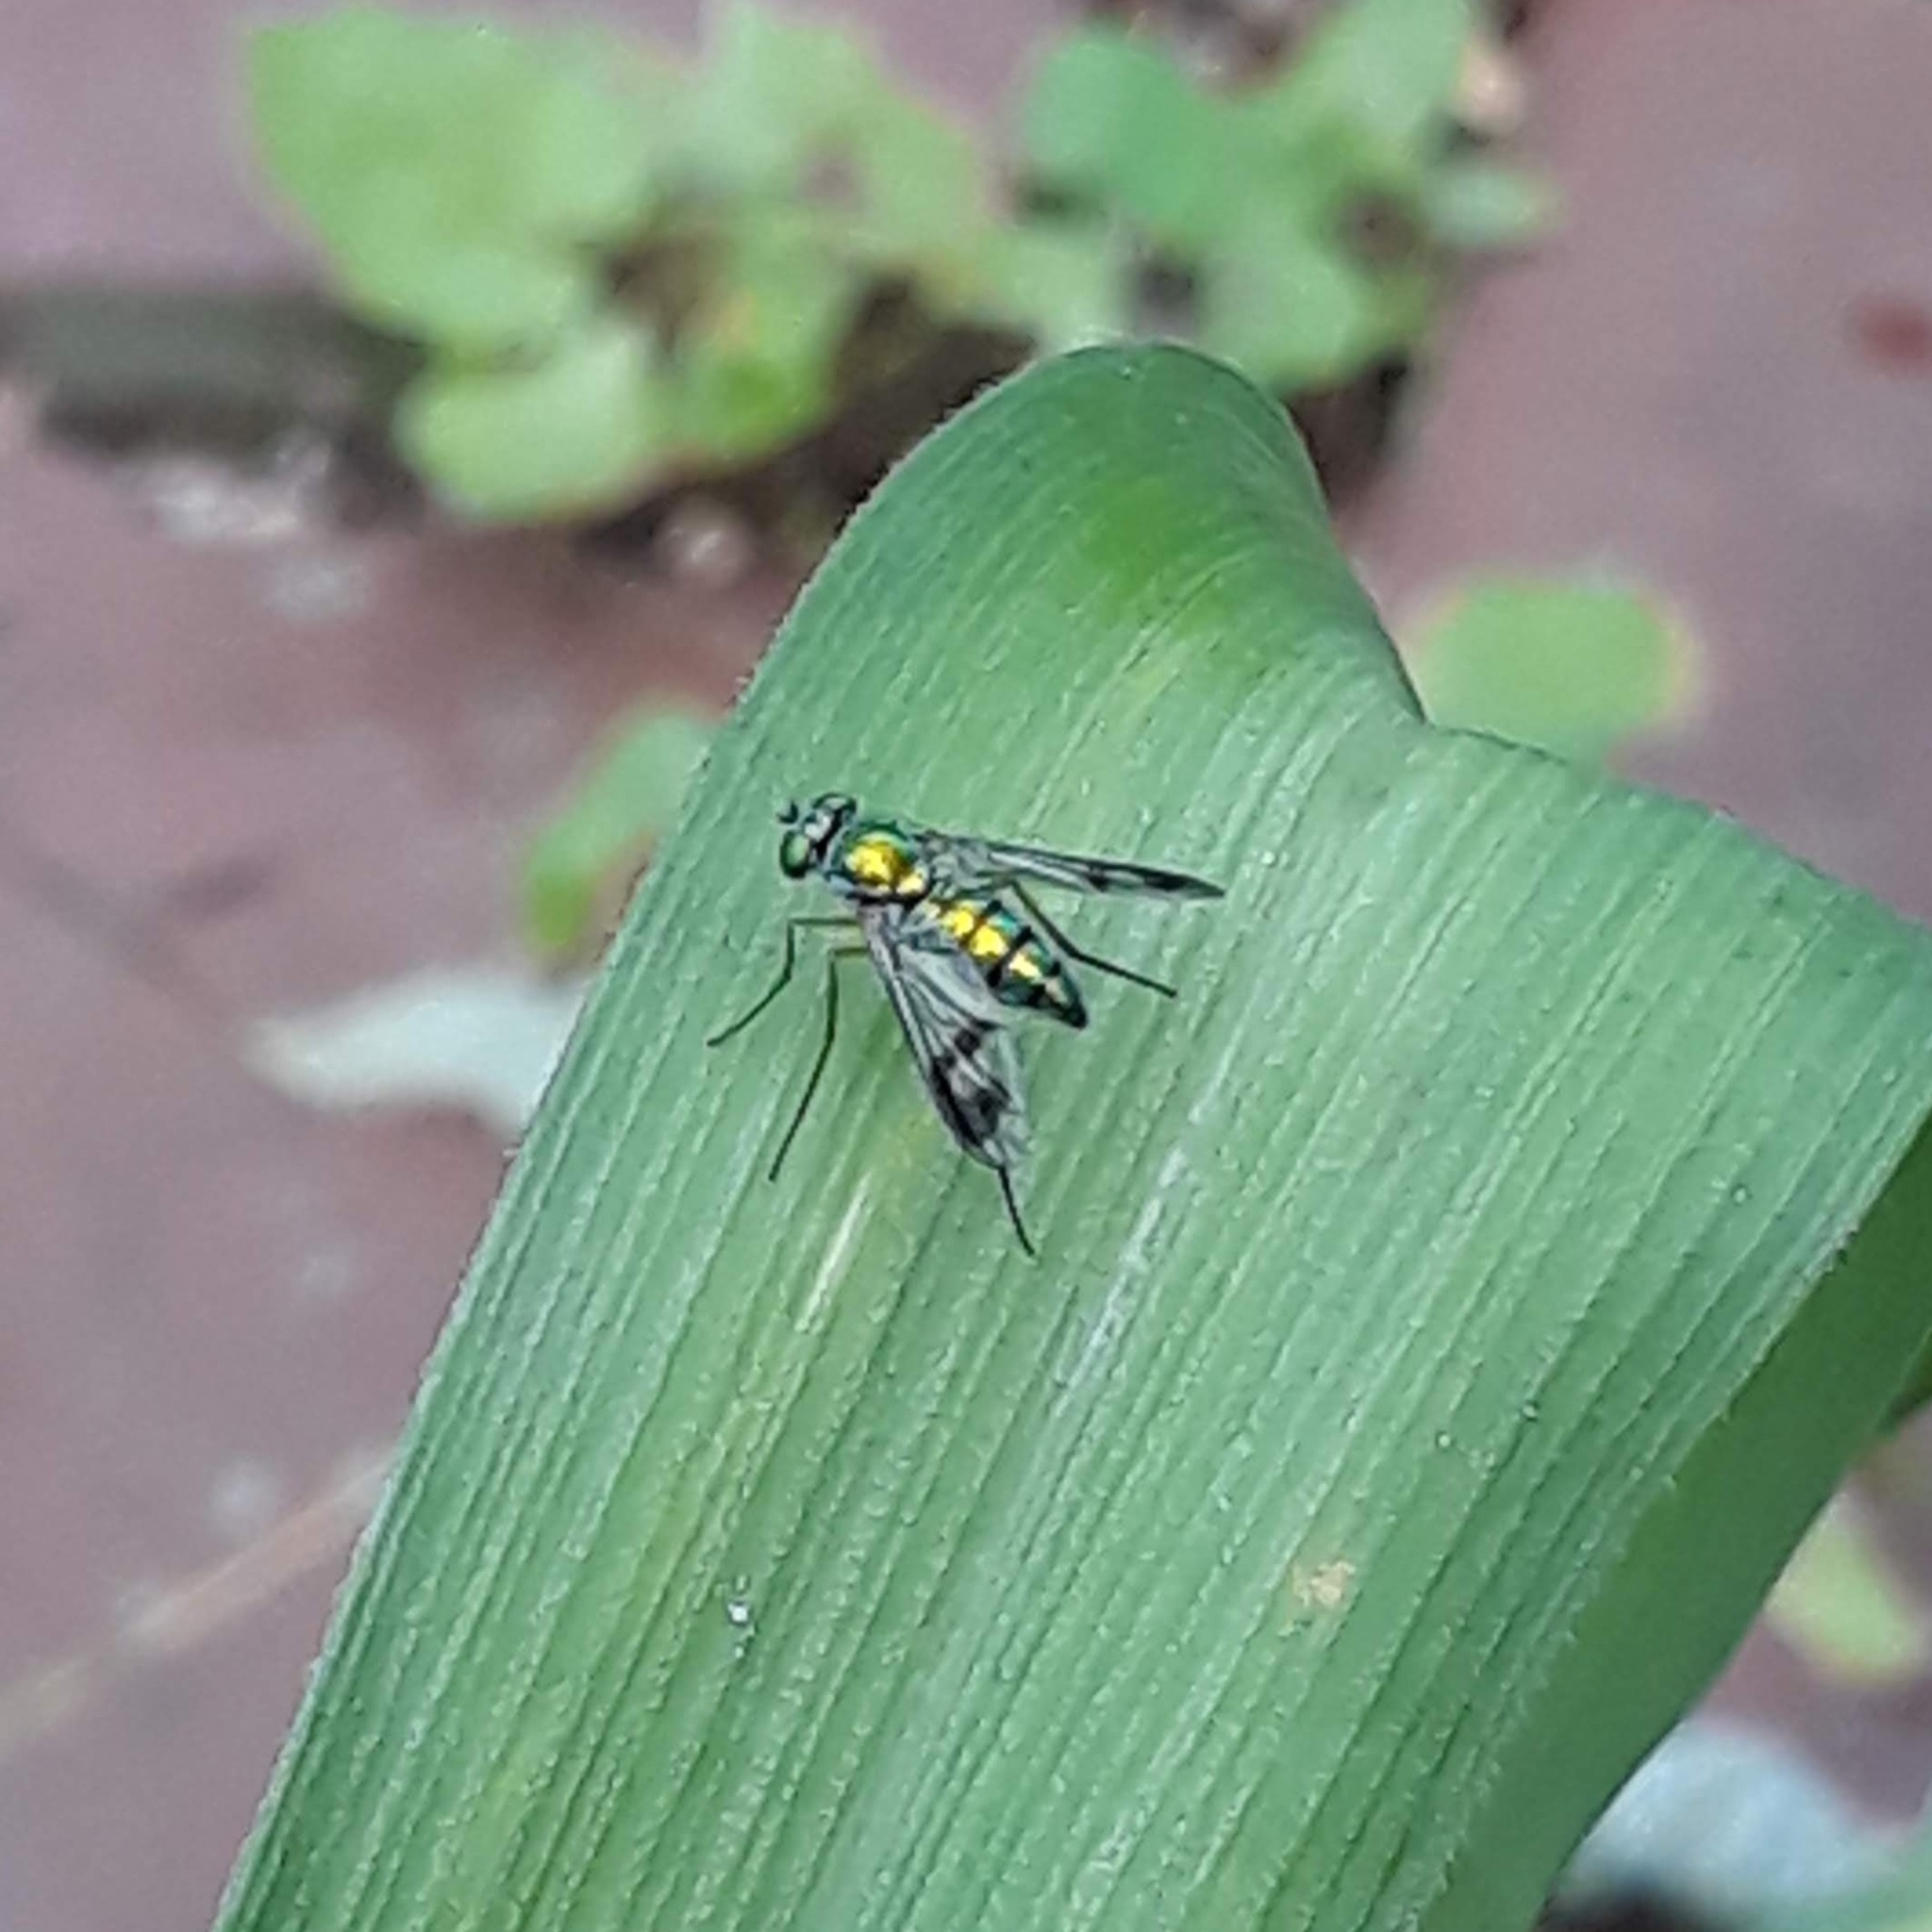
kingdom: Animalia
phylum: Arthropoda
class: Insecta
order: Diptera
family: Dolichopodidae
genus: Condylostylus
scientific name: Condylostylus
